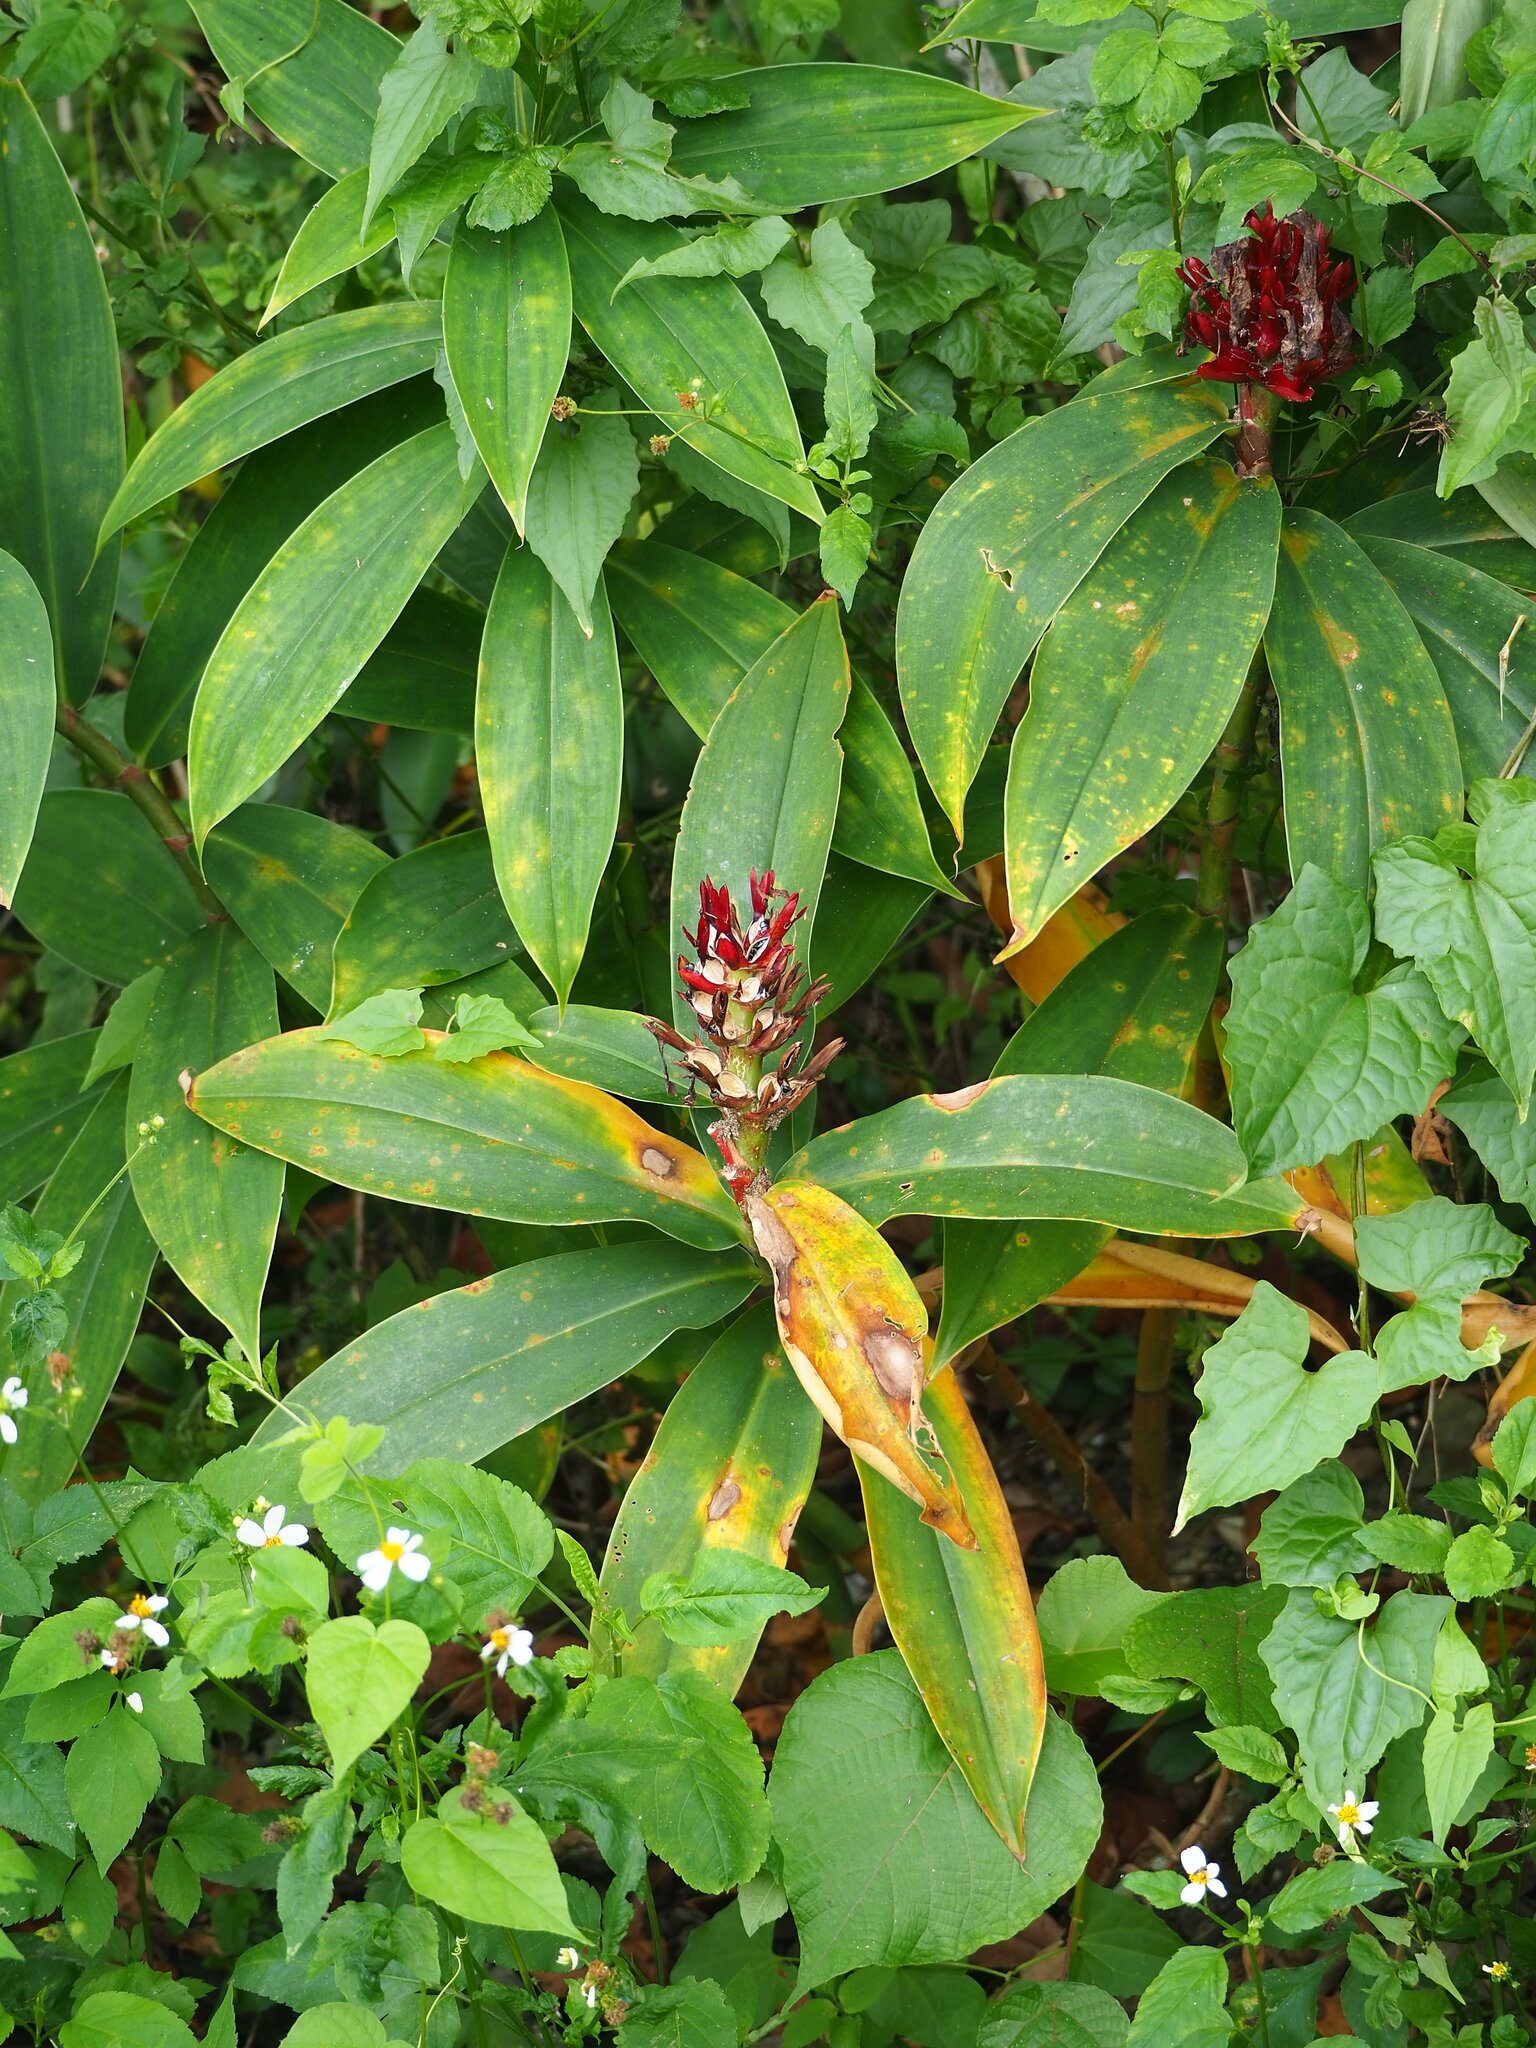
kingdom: Plantae
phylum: Tracheophyta
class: Liliopsida
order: Zingiberales
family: Costaceae
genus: Hellenia
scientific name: Hellenia speciosa
